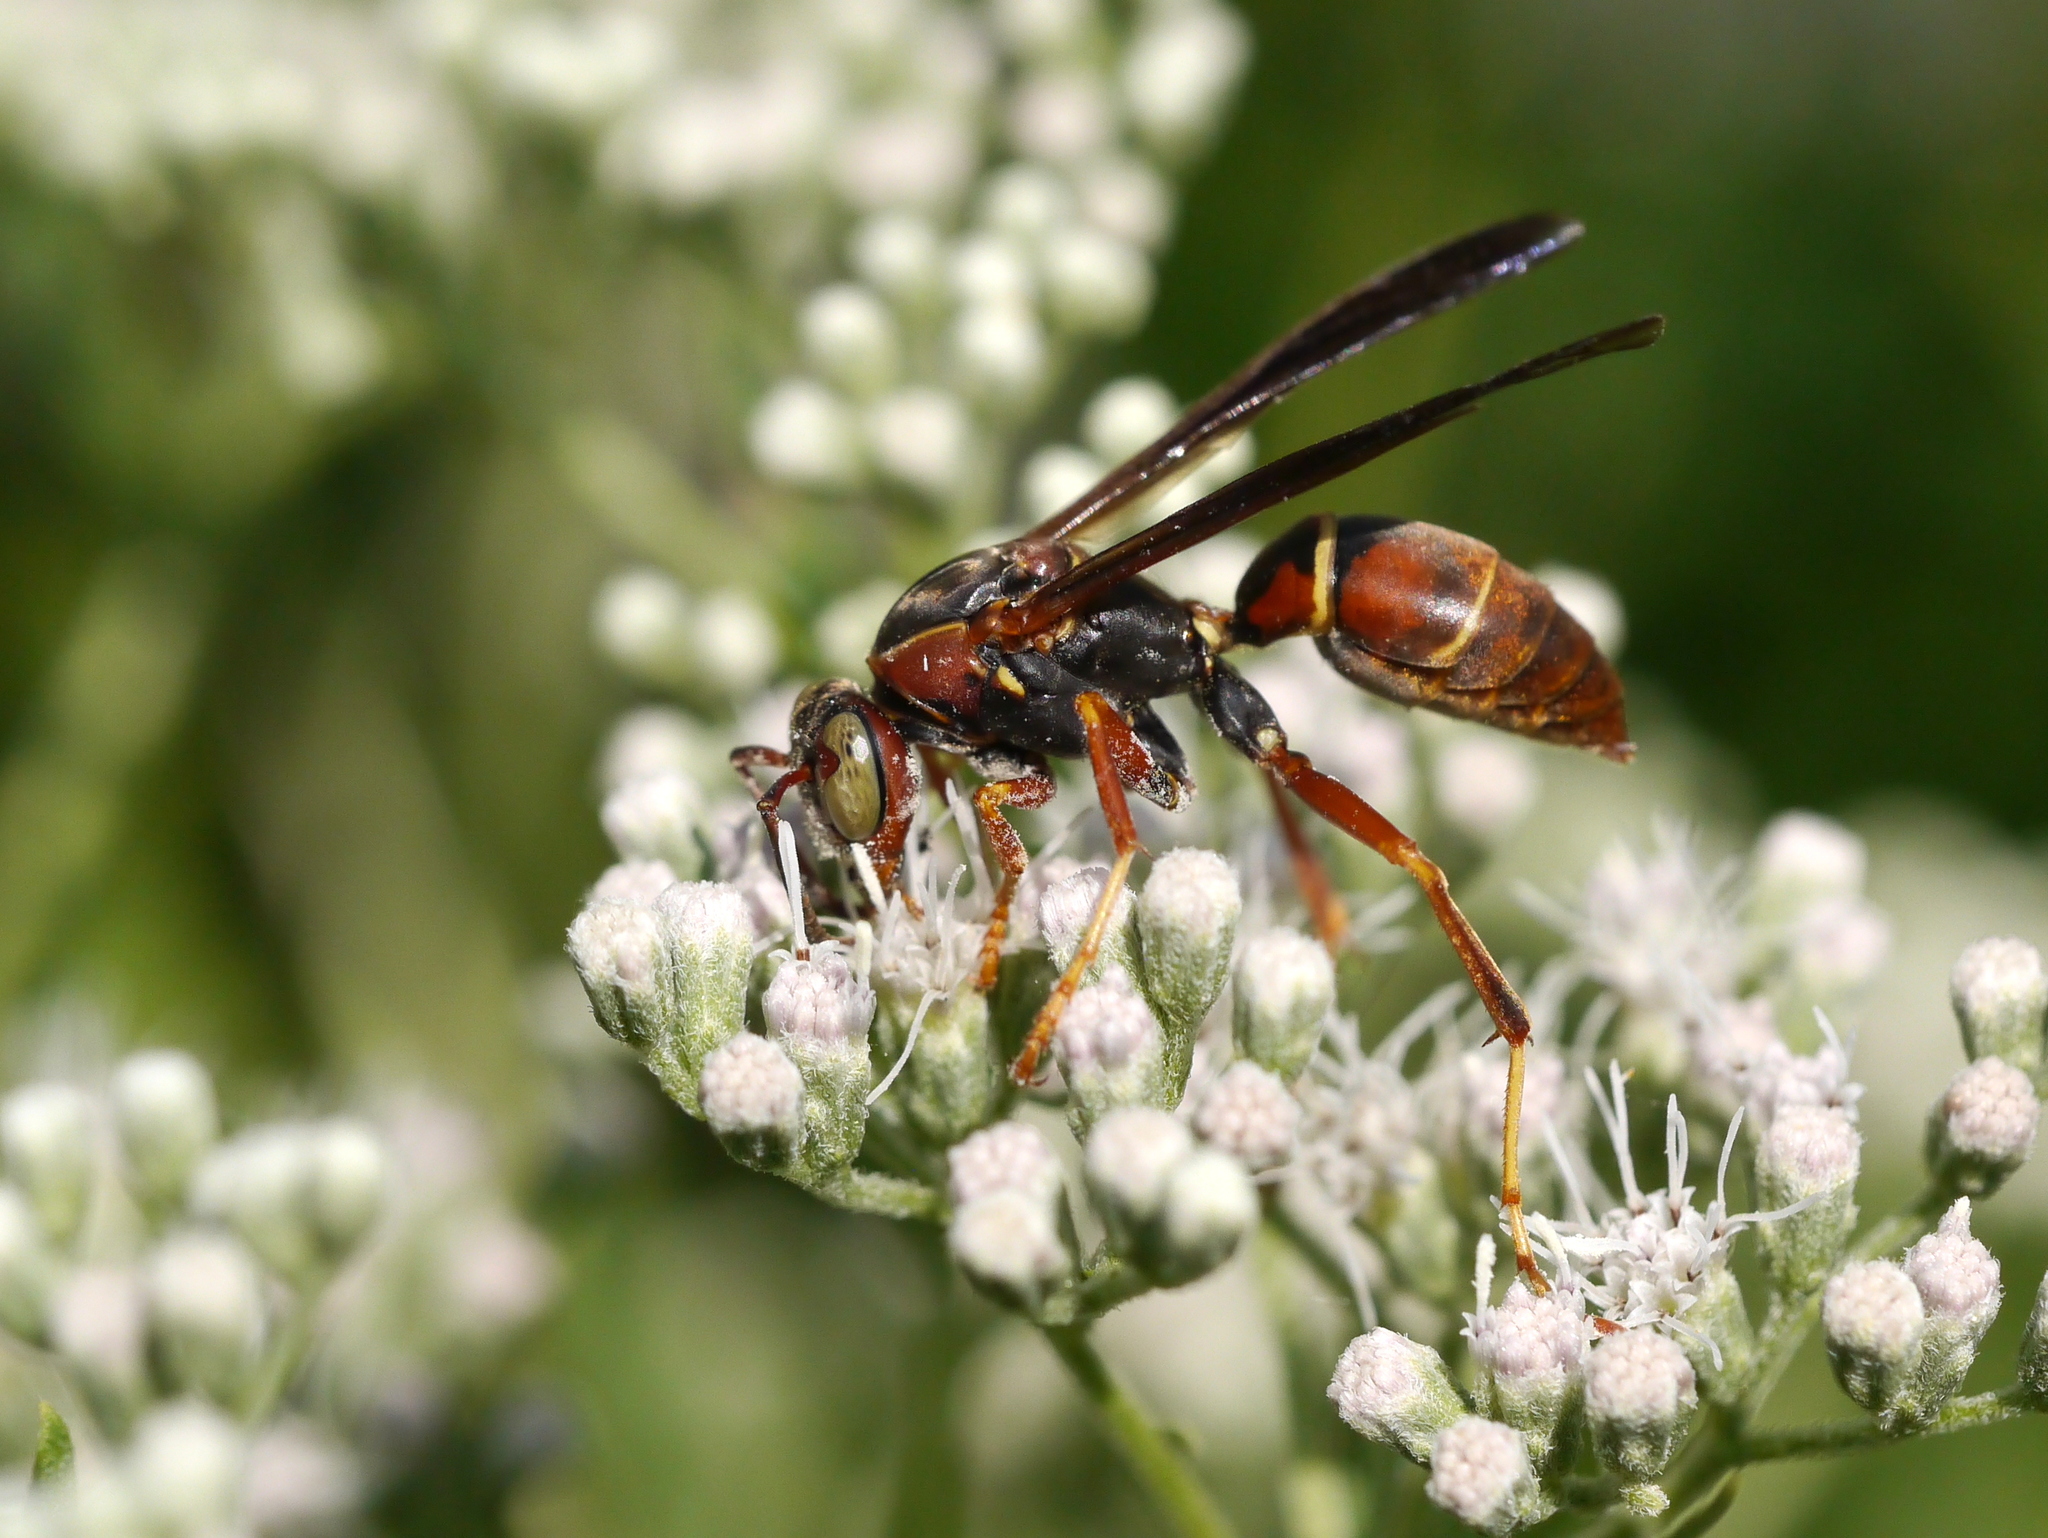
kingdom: Animalia
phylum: Arthropoda
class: Insecta
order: Hymenoptera
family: Eumenidae
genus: Polistes
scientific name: Polistes fuscatus
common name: Dark paper wasp
